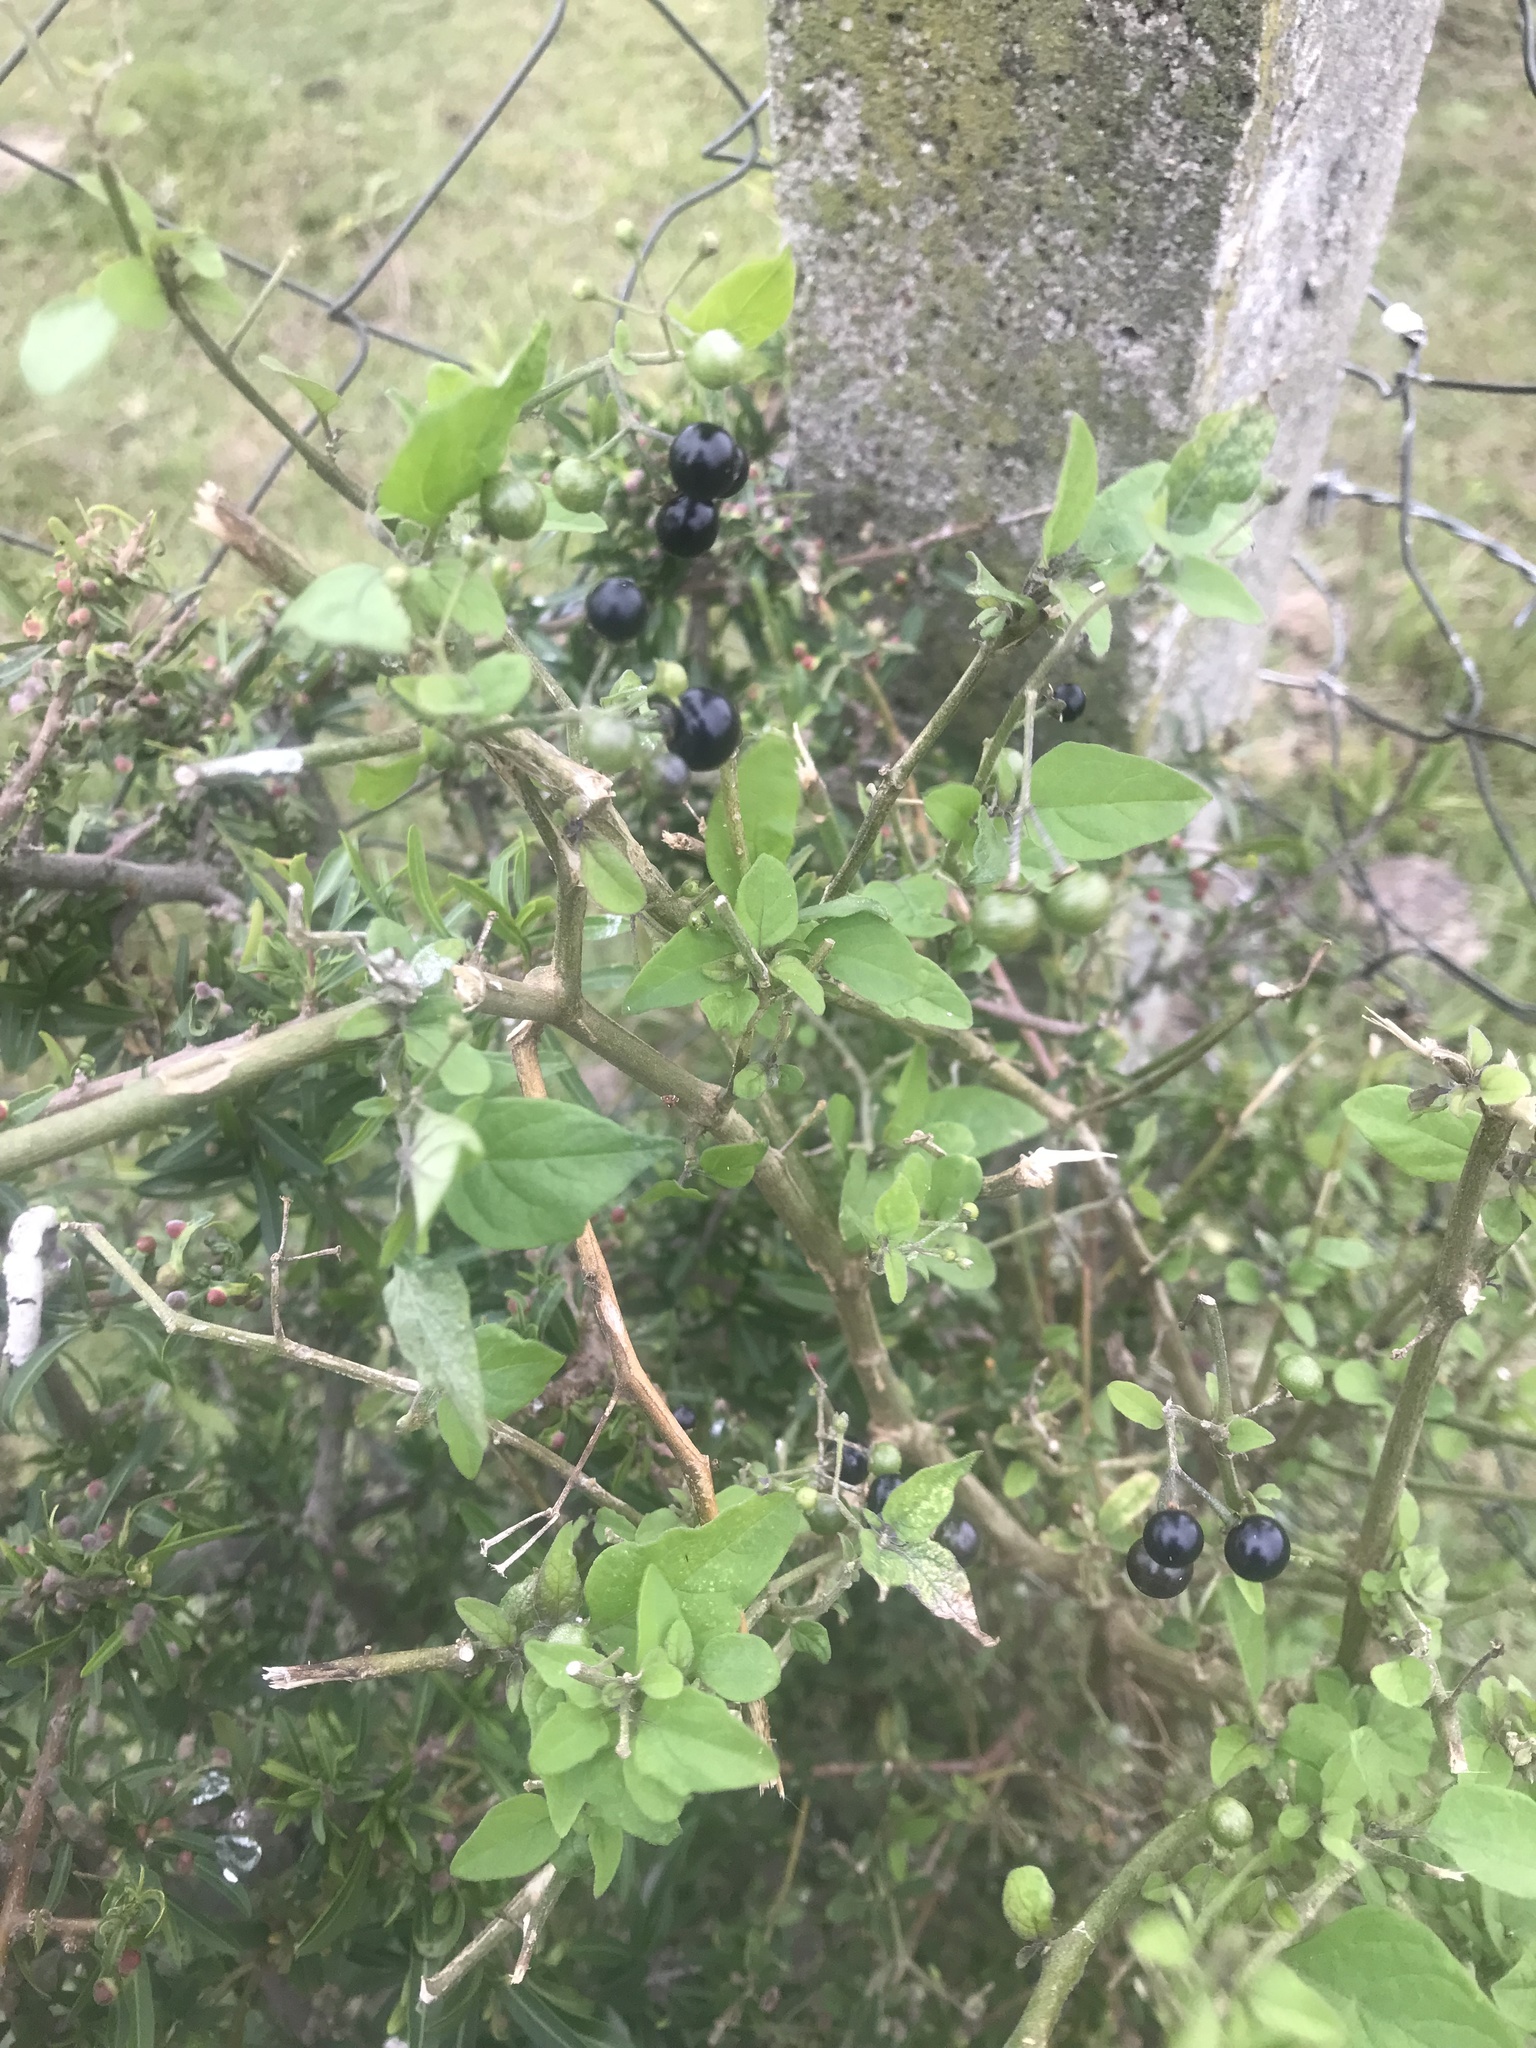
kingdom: Plantae
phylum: Tracheophyta
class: Magnoliopsida
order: Solanales
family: Solanaceae
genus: Solanum
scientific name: Solanum americanum
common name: American black nightshade
